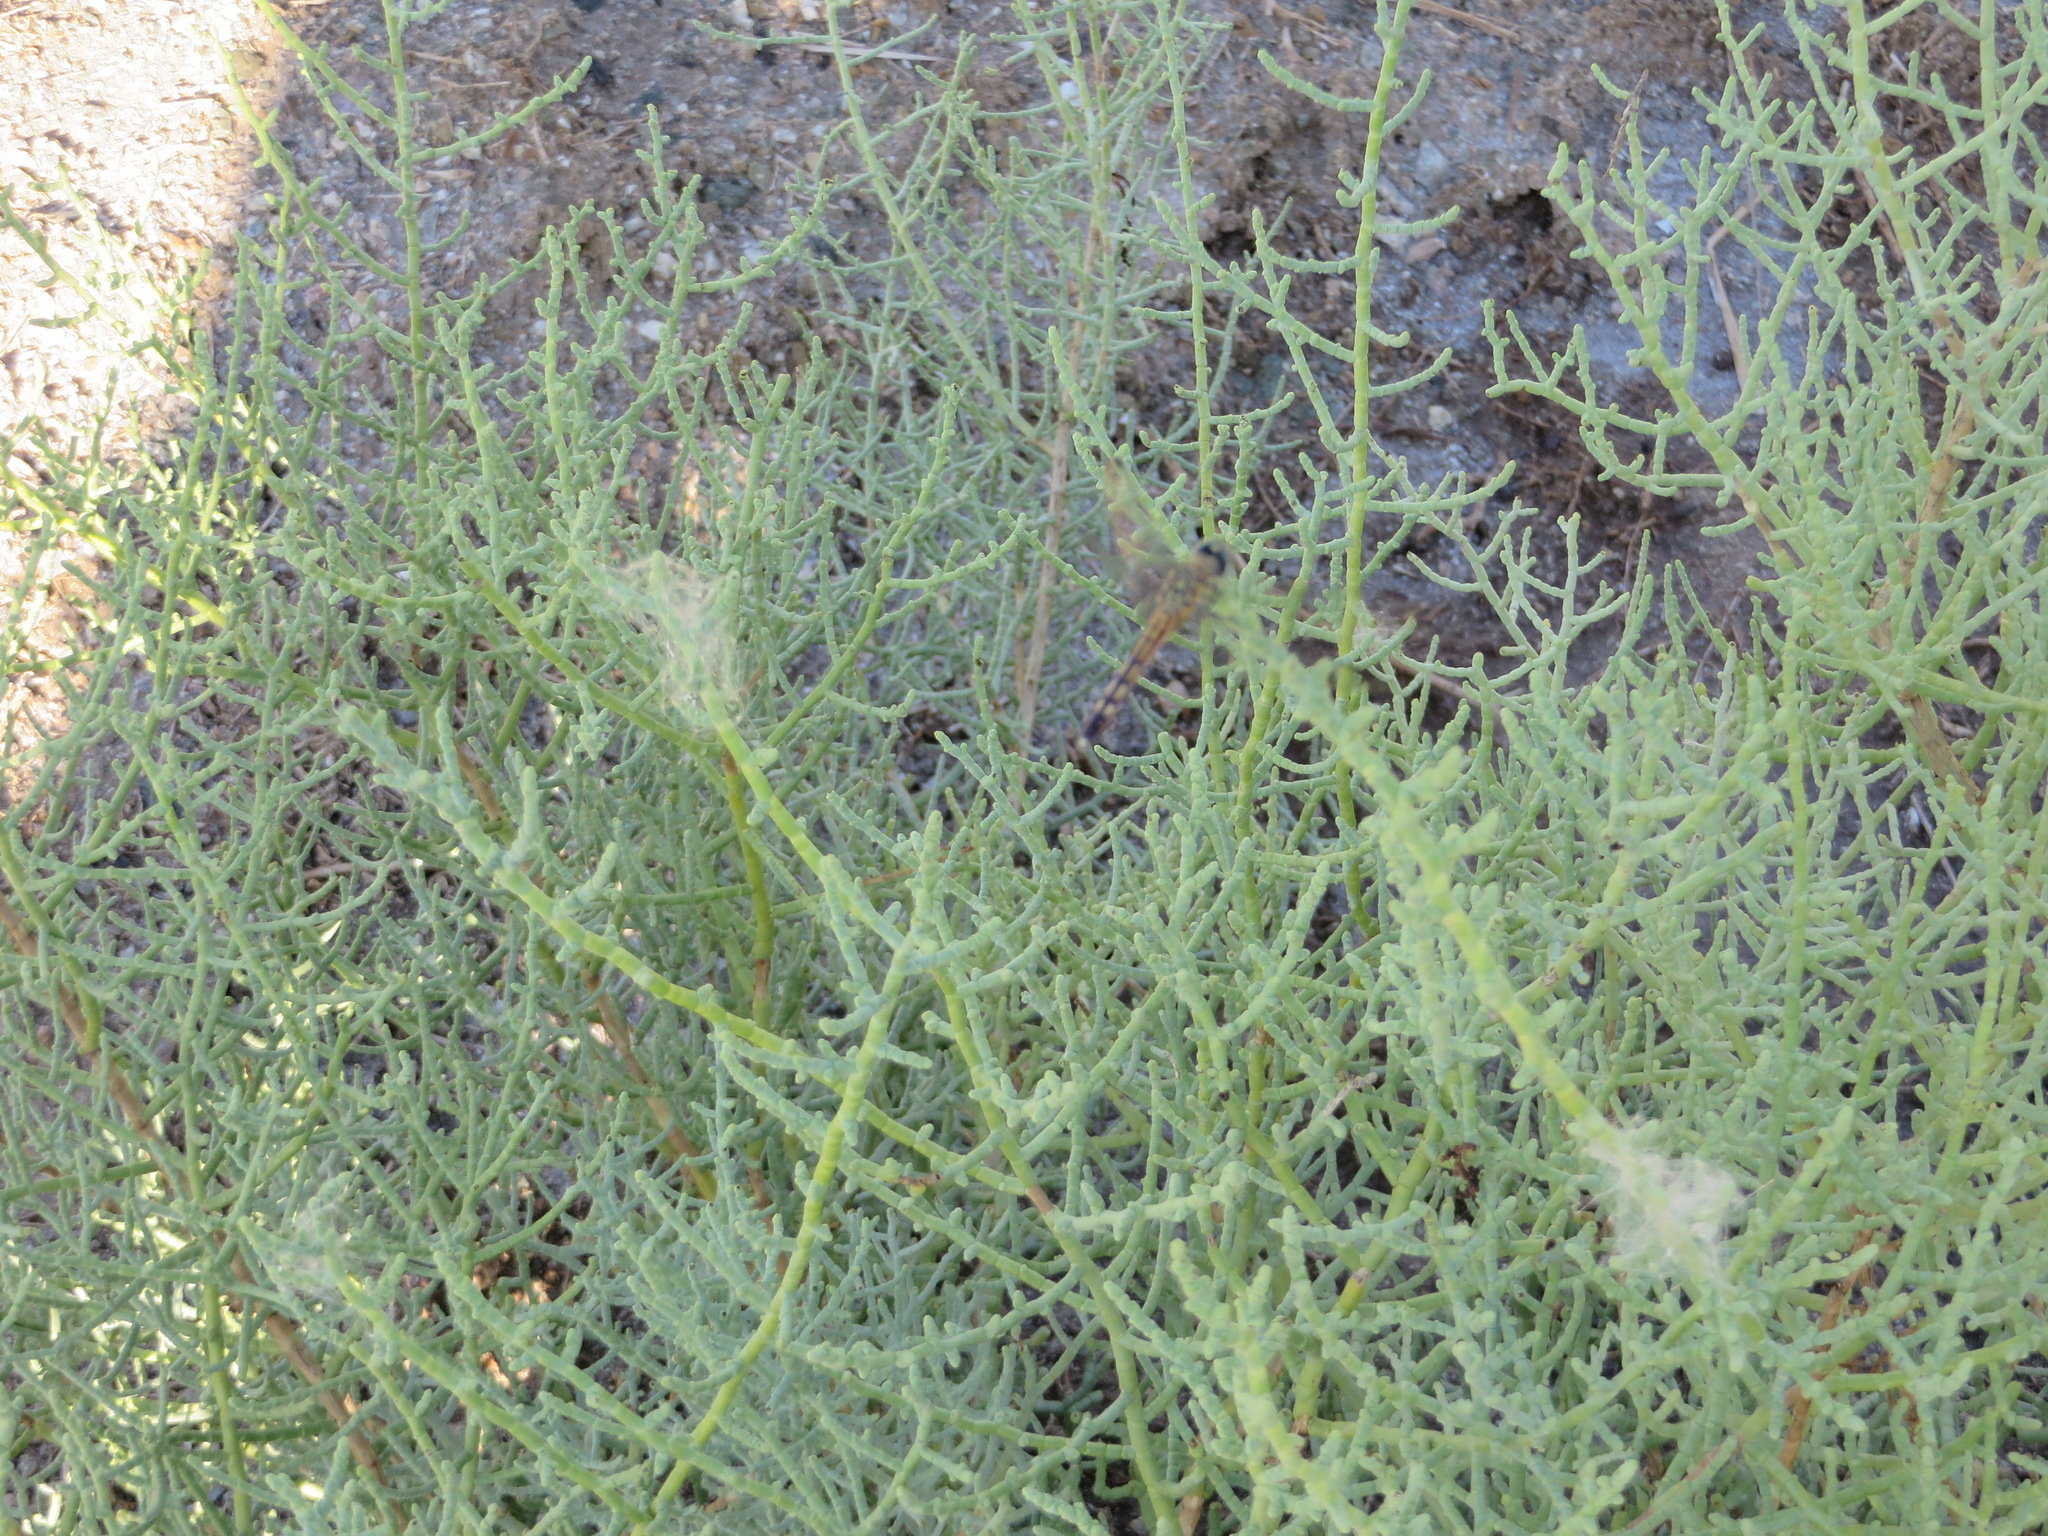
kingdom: Animalia
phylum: Arthropoda
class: Insecta
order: Odonata
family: Libellulidae
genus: Pachydiplax
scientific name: Pachydiplax longipennis
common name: Blue dasher
